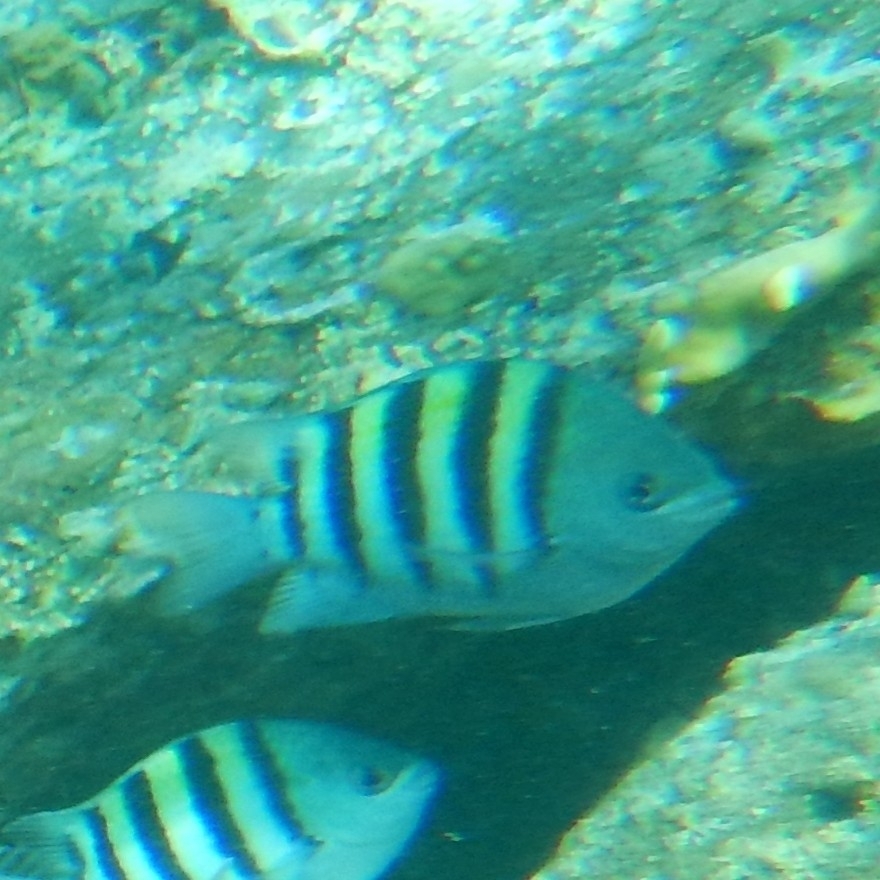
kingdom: Animalia
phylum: Chordata
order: Perciformes
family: Pomacentridae
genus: Abudefduf
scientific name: Abudefduf saxatilis
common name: Sergeant major
